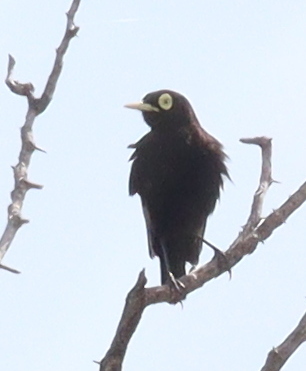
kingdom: Animalia
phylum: Chordata
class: Aves
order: Passeriformes
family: Tyrannidae
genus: Hymenops
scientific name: Hymenops perspicillatus
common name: Spectacled tyrant
